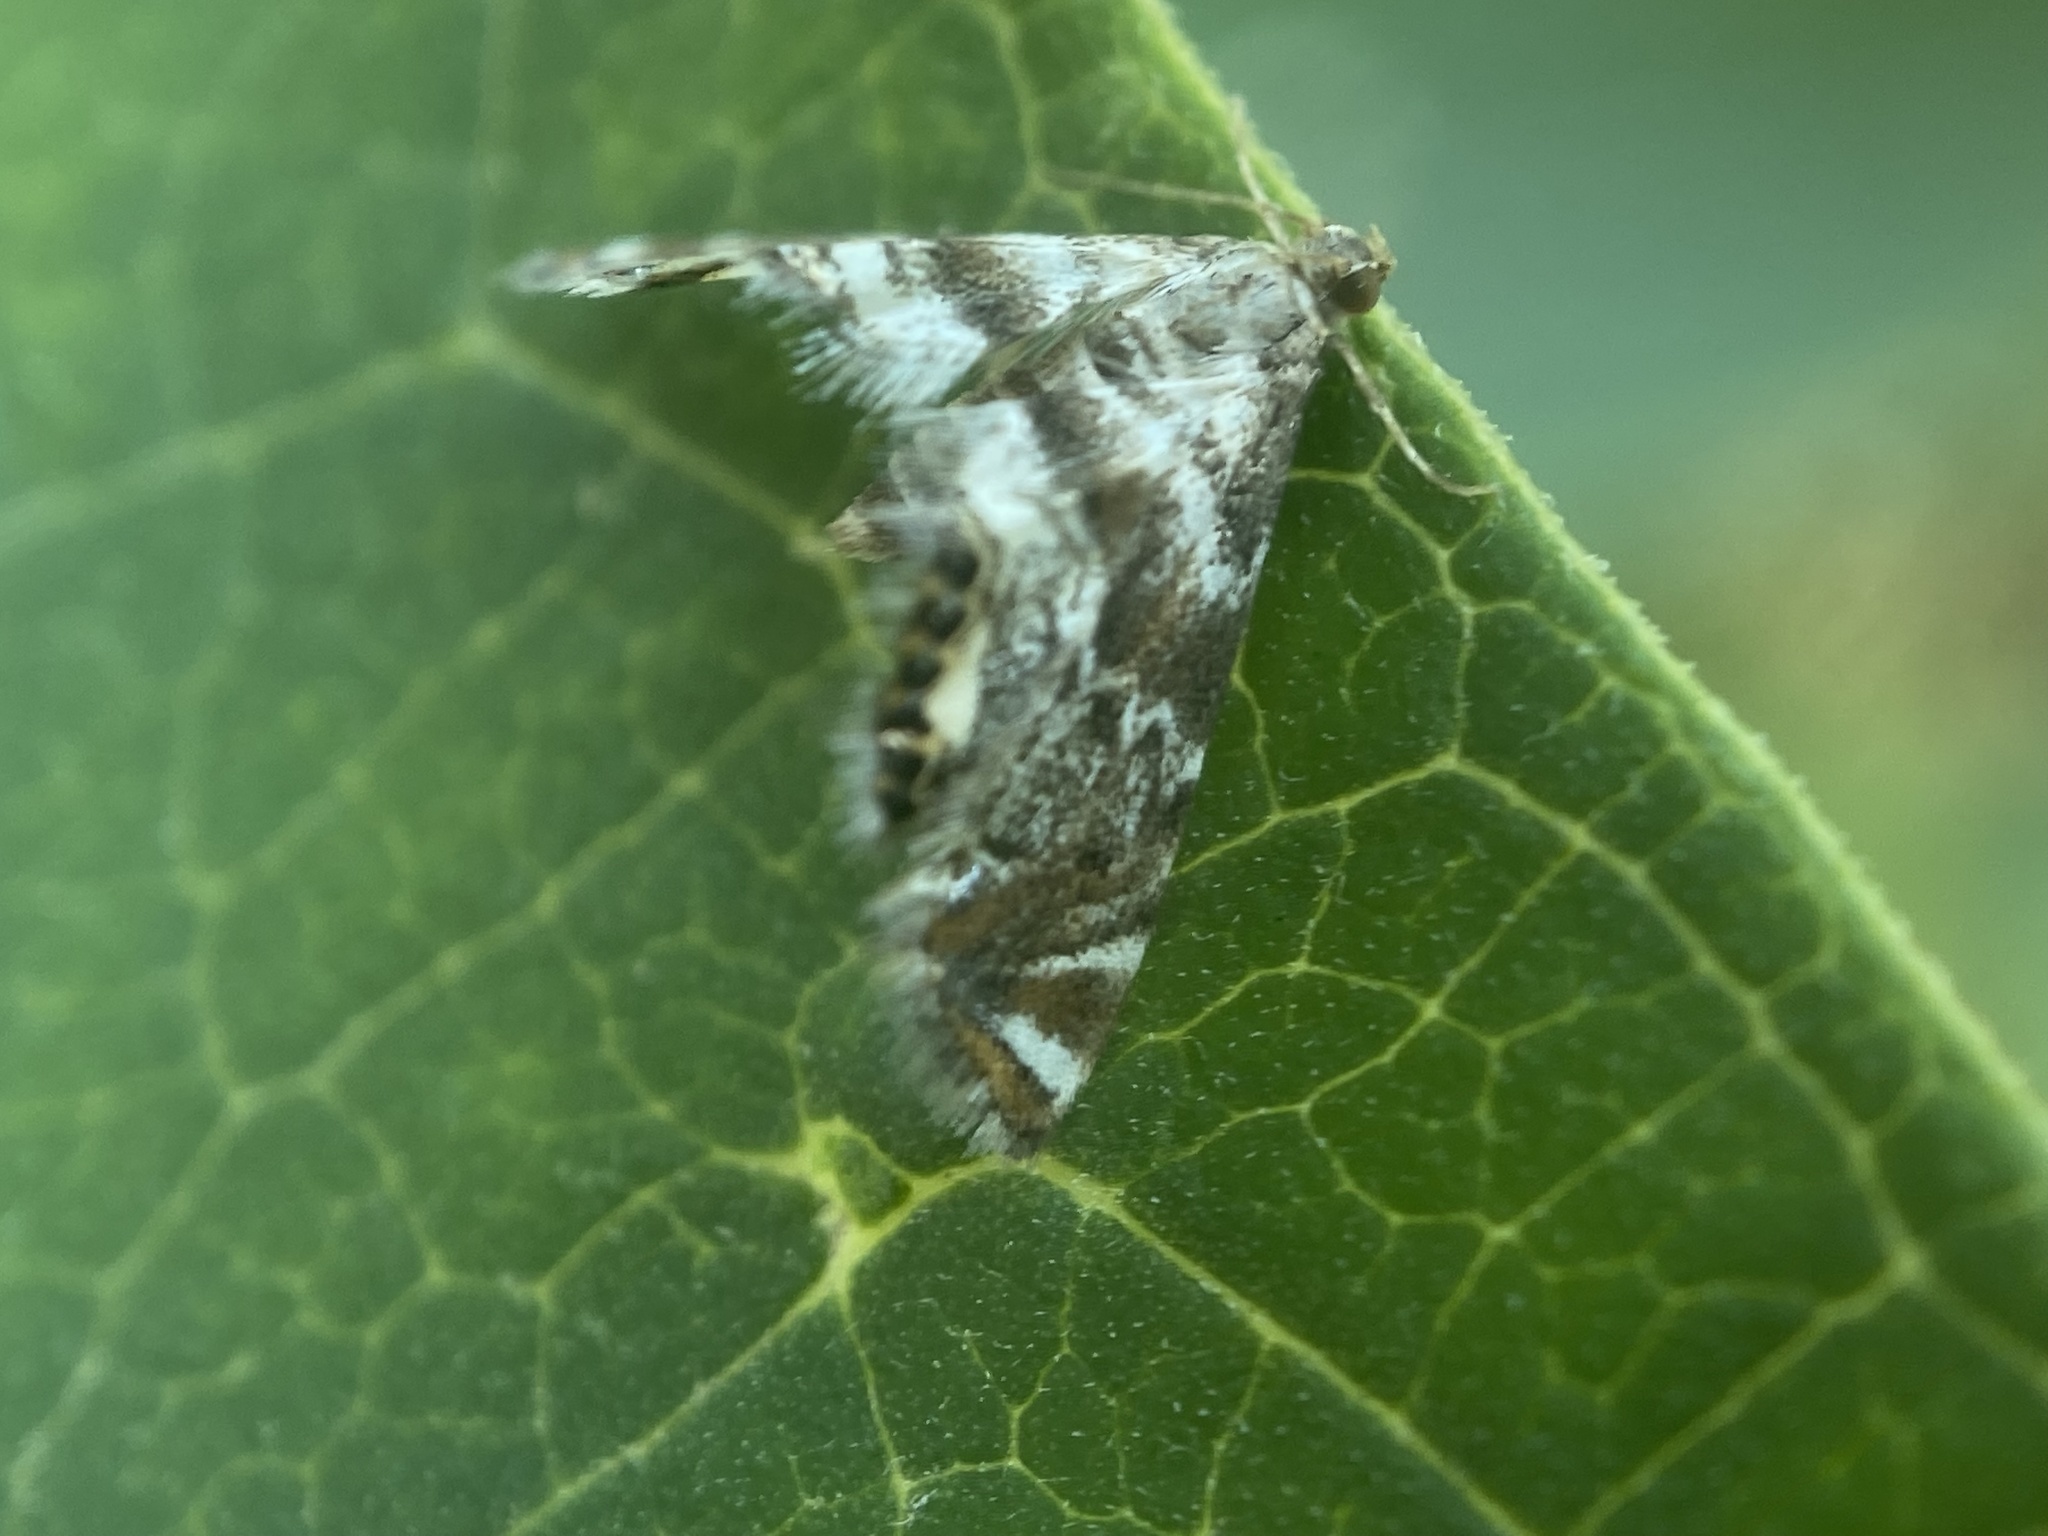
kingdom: Animalia
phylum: Arthropoda
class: Insecta
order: Lepidoptera
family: Crambidae
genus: Petrophila
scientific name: Petrophila fulicalis
